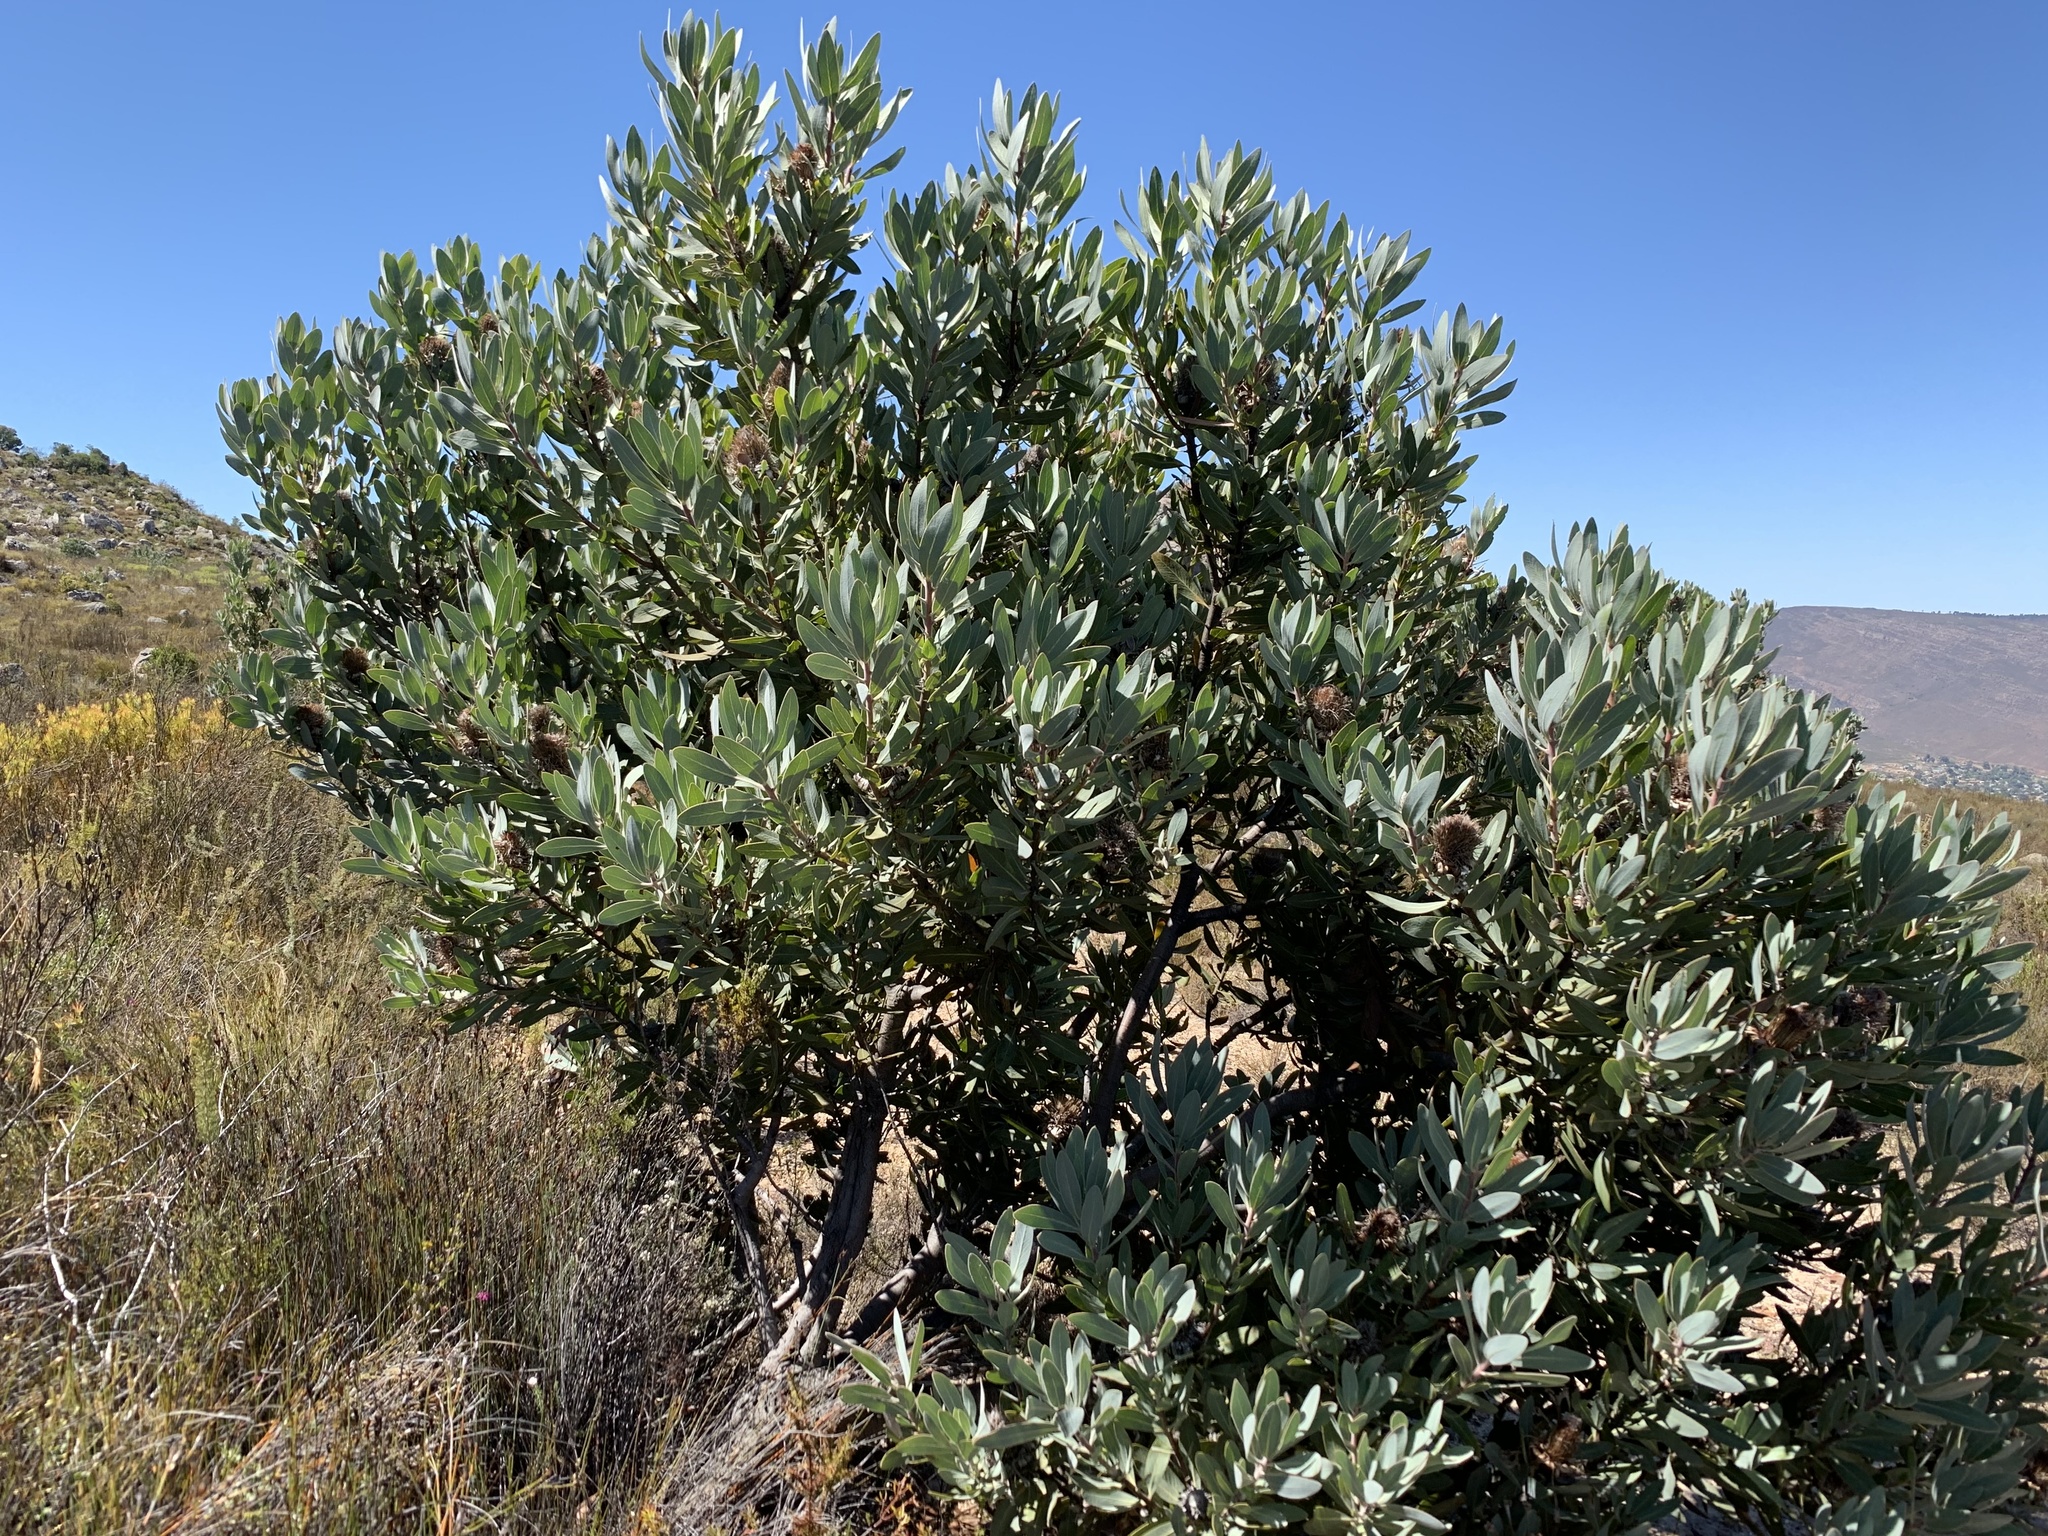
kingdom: Plantae
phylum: Tracheophyta
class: Magnoliopsida
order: Proteales
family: Proteaceae
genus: Protea
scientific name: Protea laurifolia
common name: Grey-leaf sugarbsh
